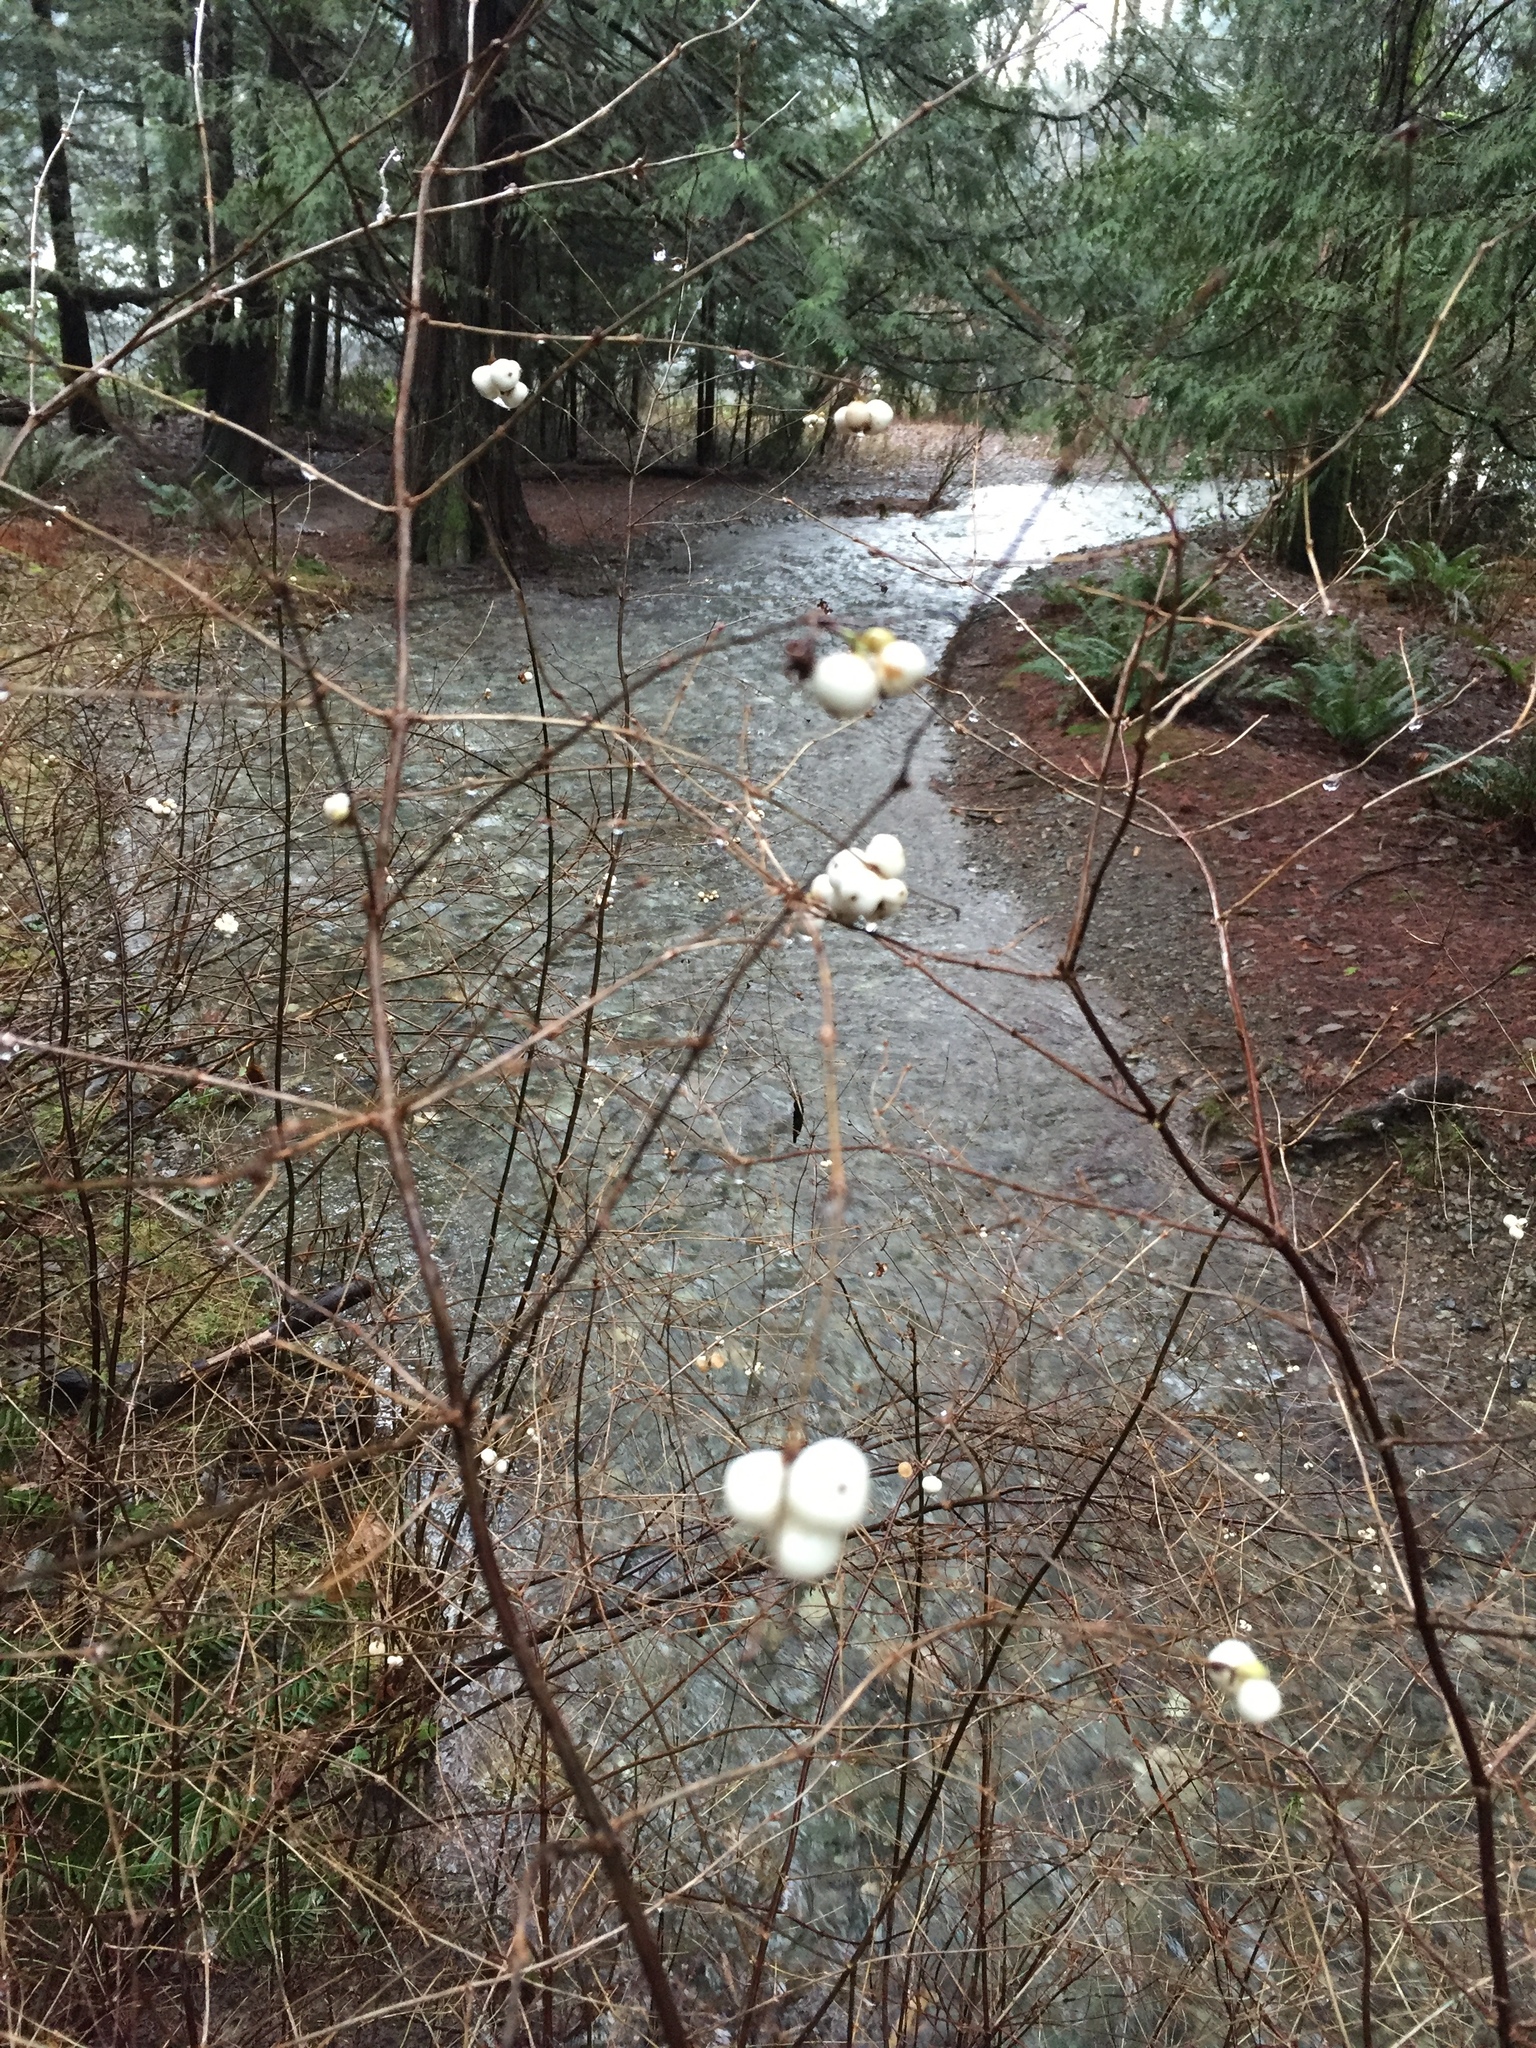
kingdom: Plantae
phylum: Tracheophyta
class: Magnoliopsida
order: Dipsacales
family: Caprifoliaceae
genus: Symphoricarpos
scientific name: Symphoricarpos albus
